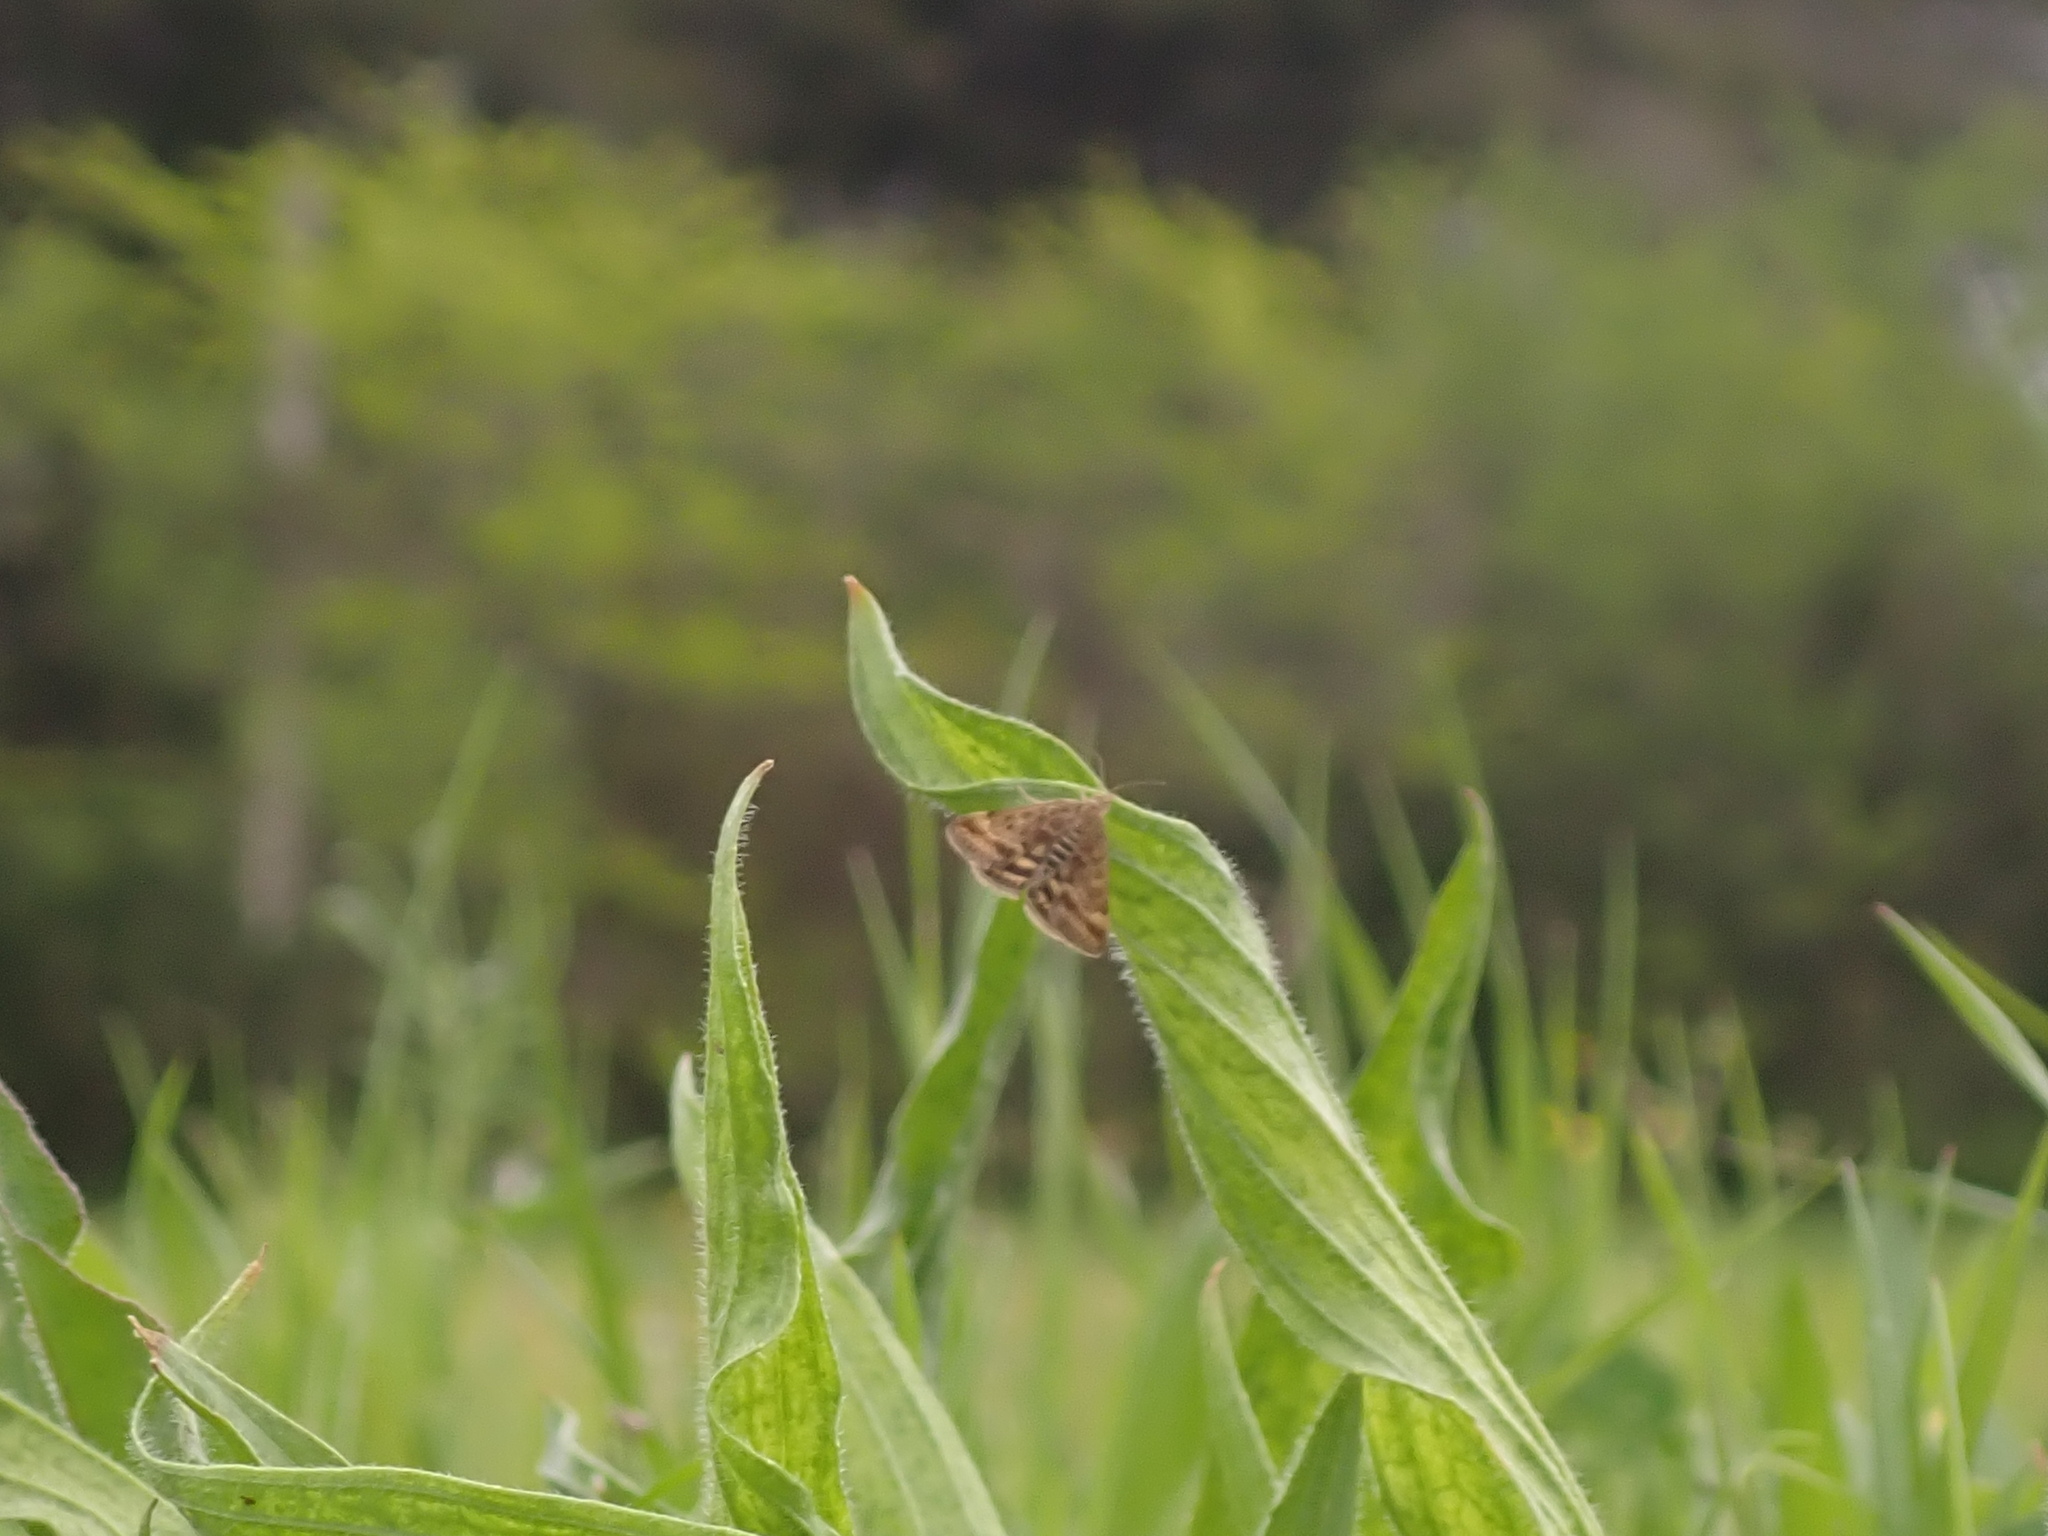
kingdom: Animalia
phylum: Arthropoda
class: Insecta
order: Lepidoptera
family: Crambidae
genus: Pyrausta
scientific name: Pyrausta despicata
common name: Straw-barred pearl
